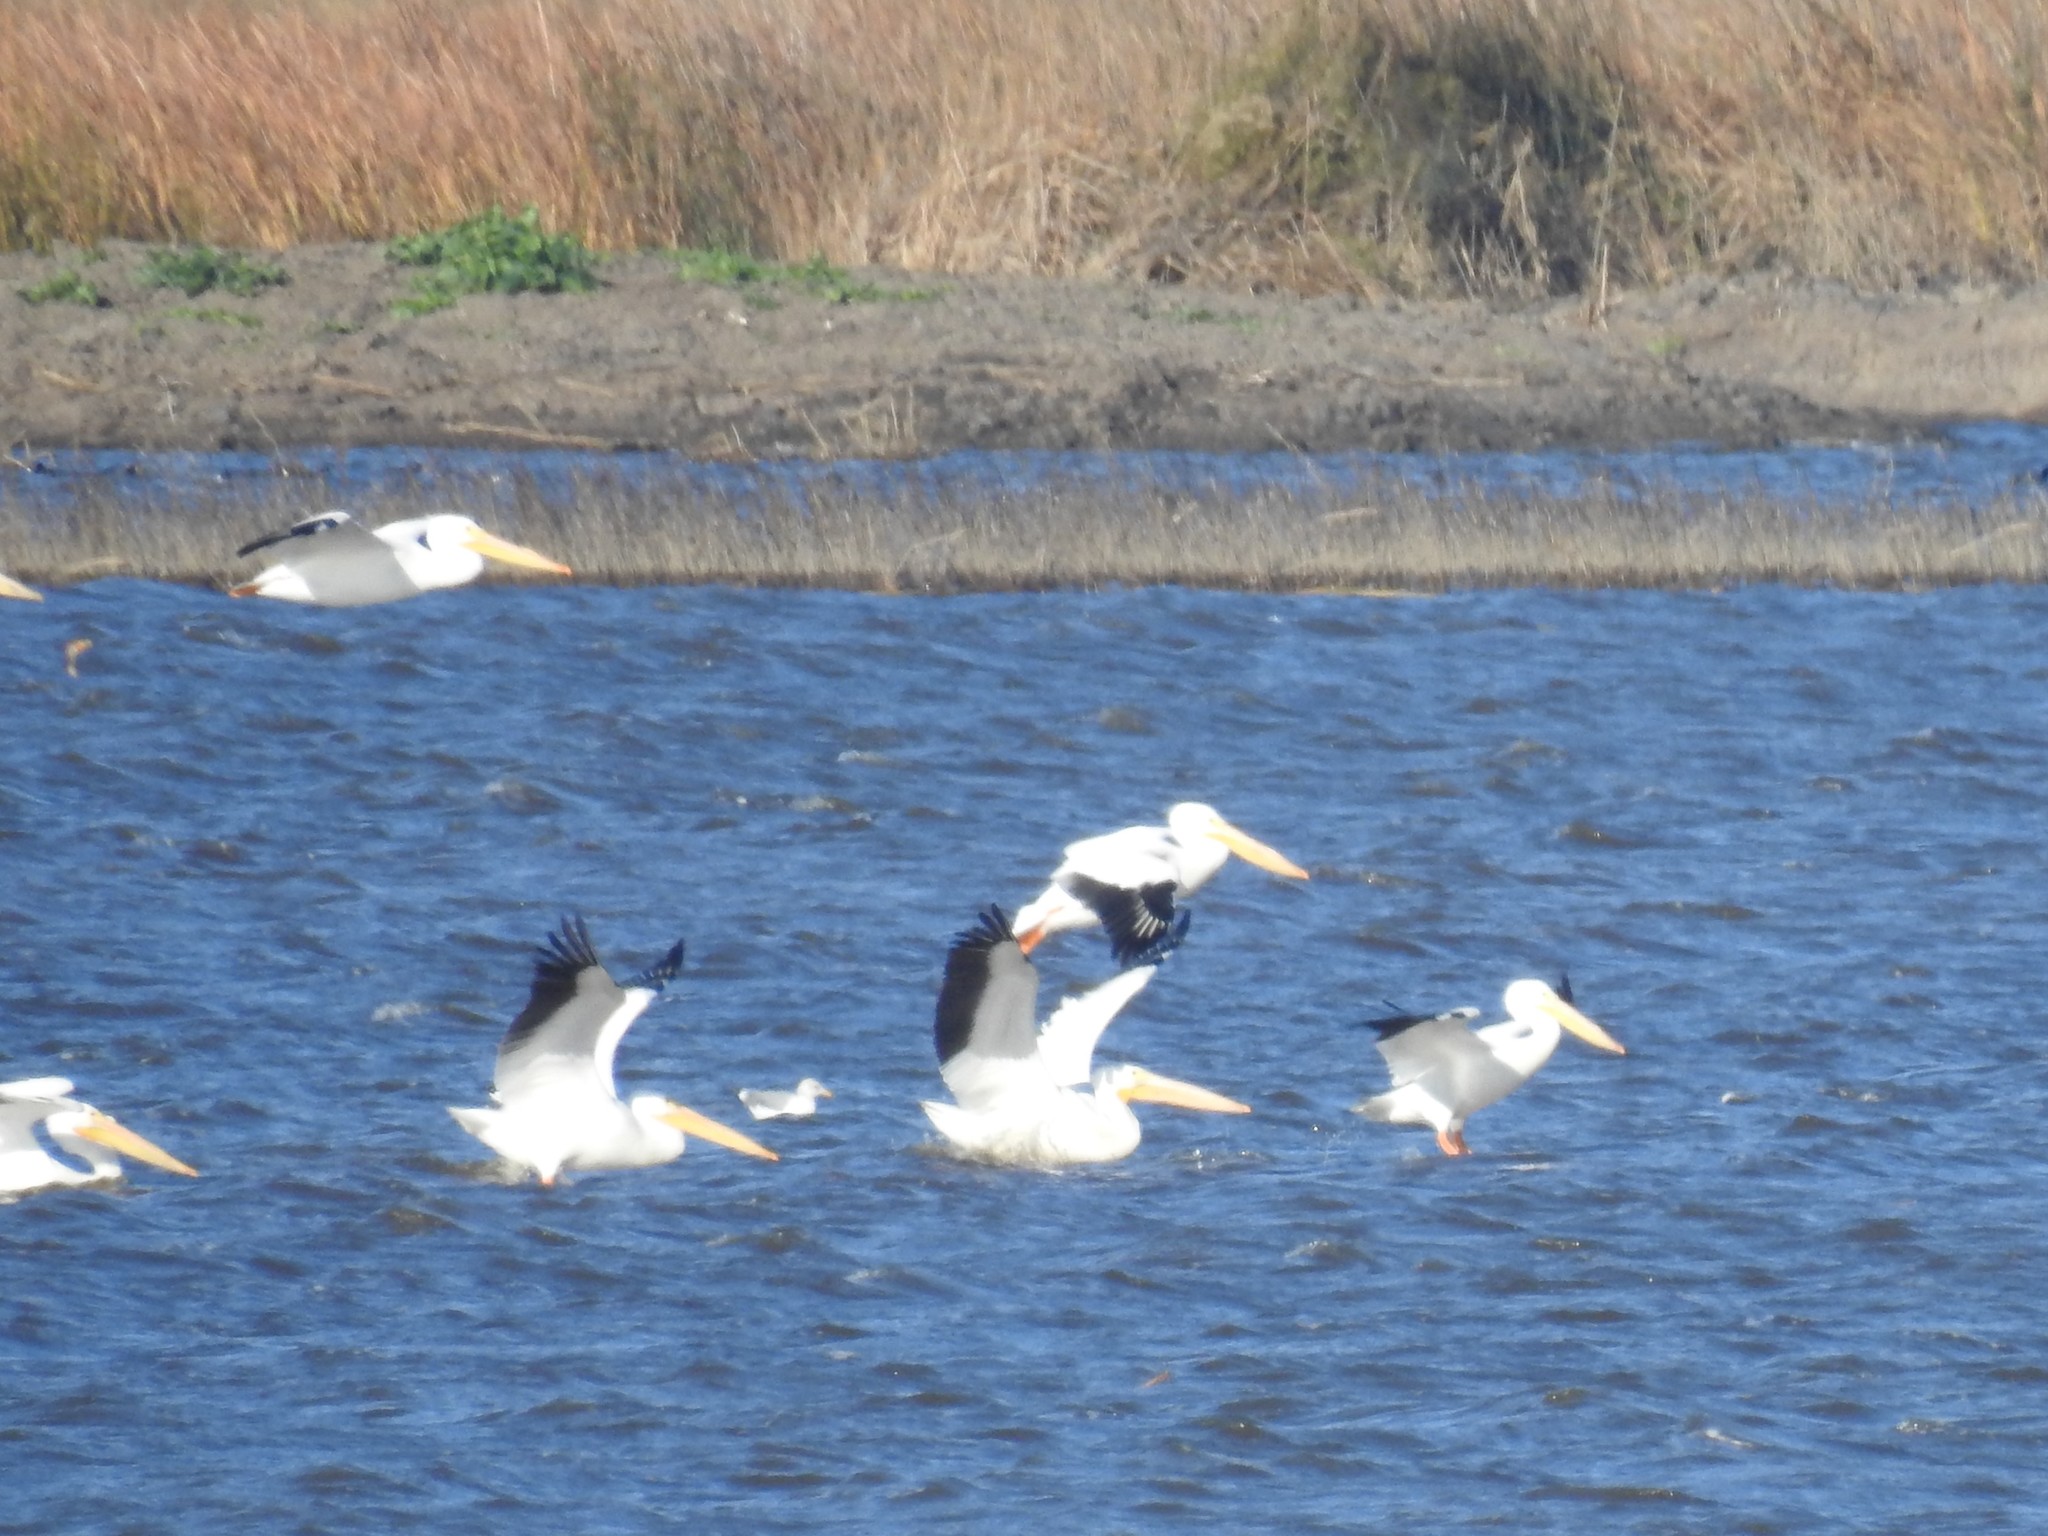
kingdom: Animalia
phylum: Chordata
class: Aves
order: Pelecaniformes
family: Pelecanidae
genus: Pelecanus
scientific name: Pelecanus erythrorhynchos
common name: American white pelican
